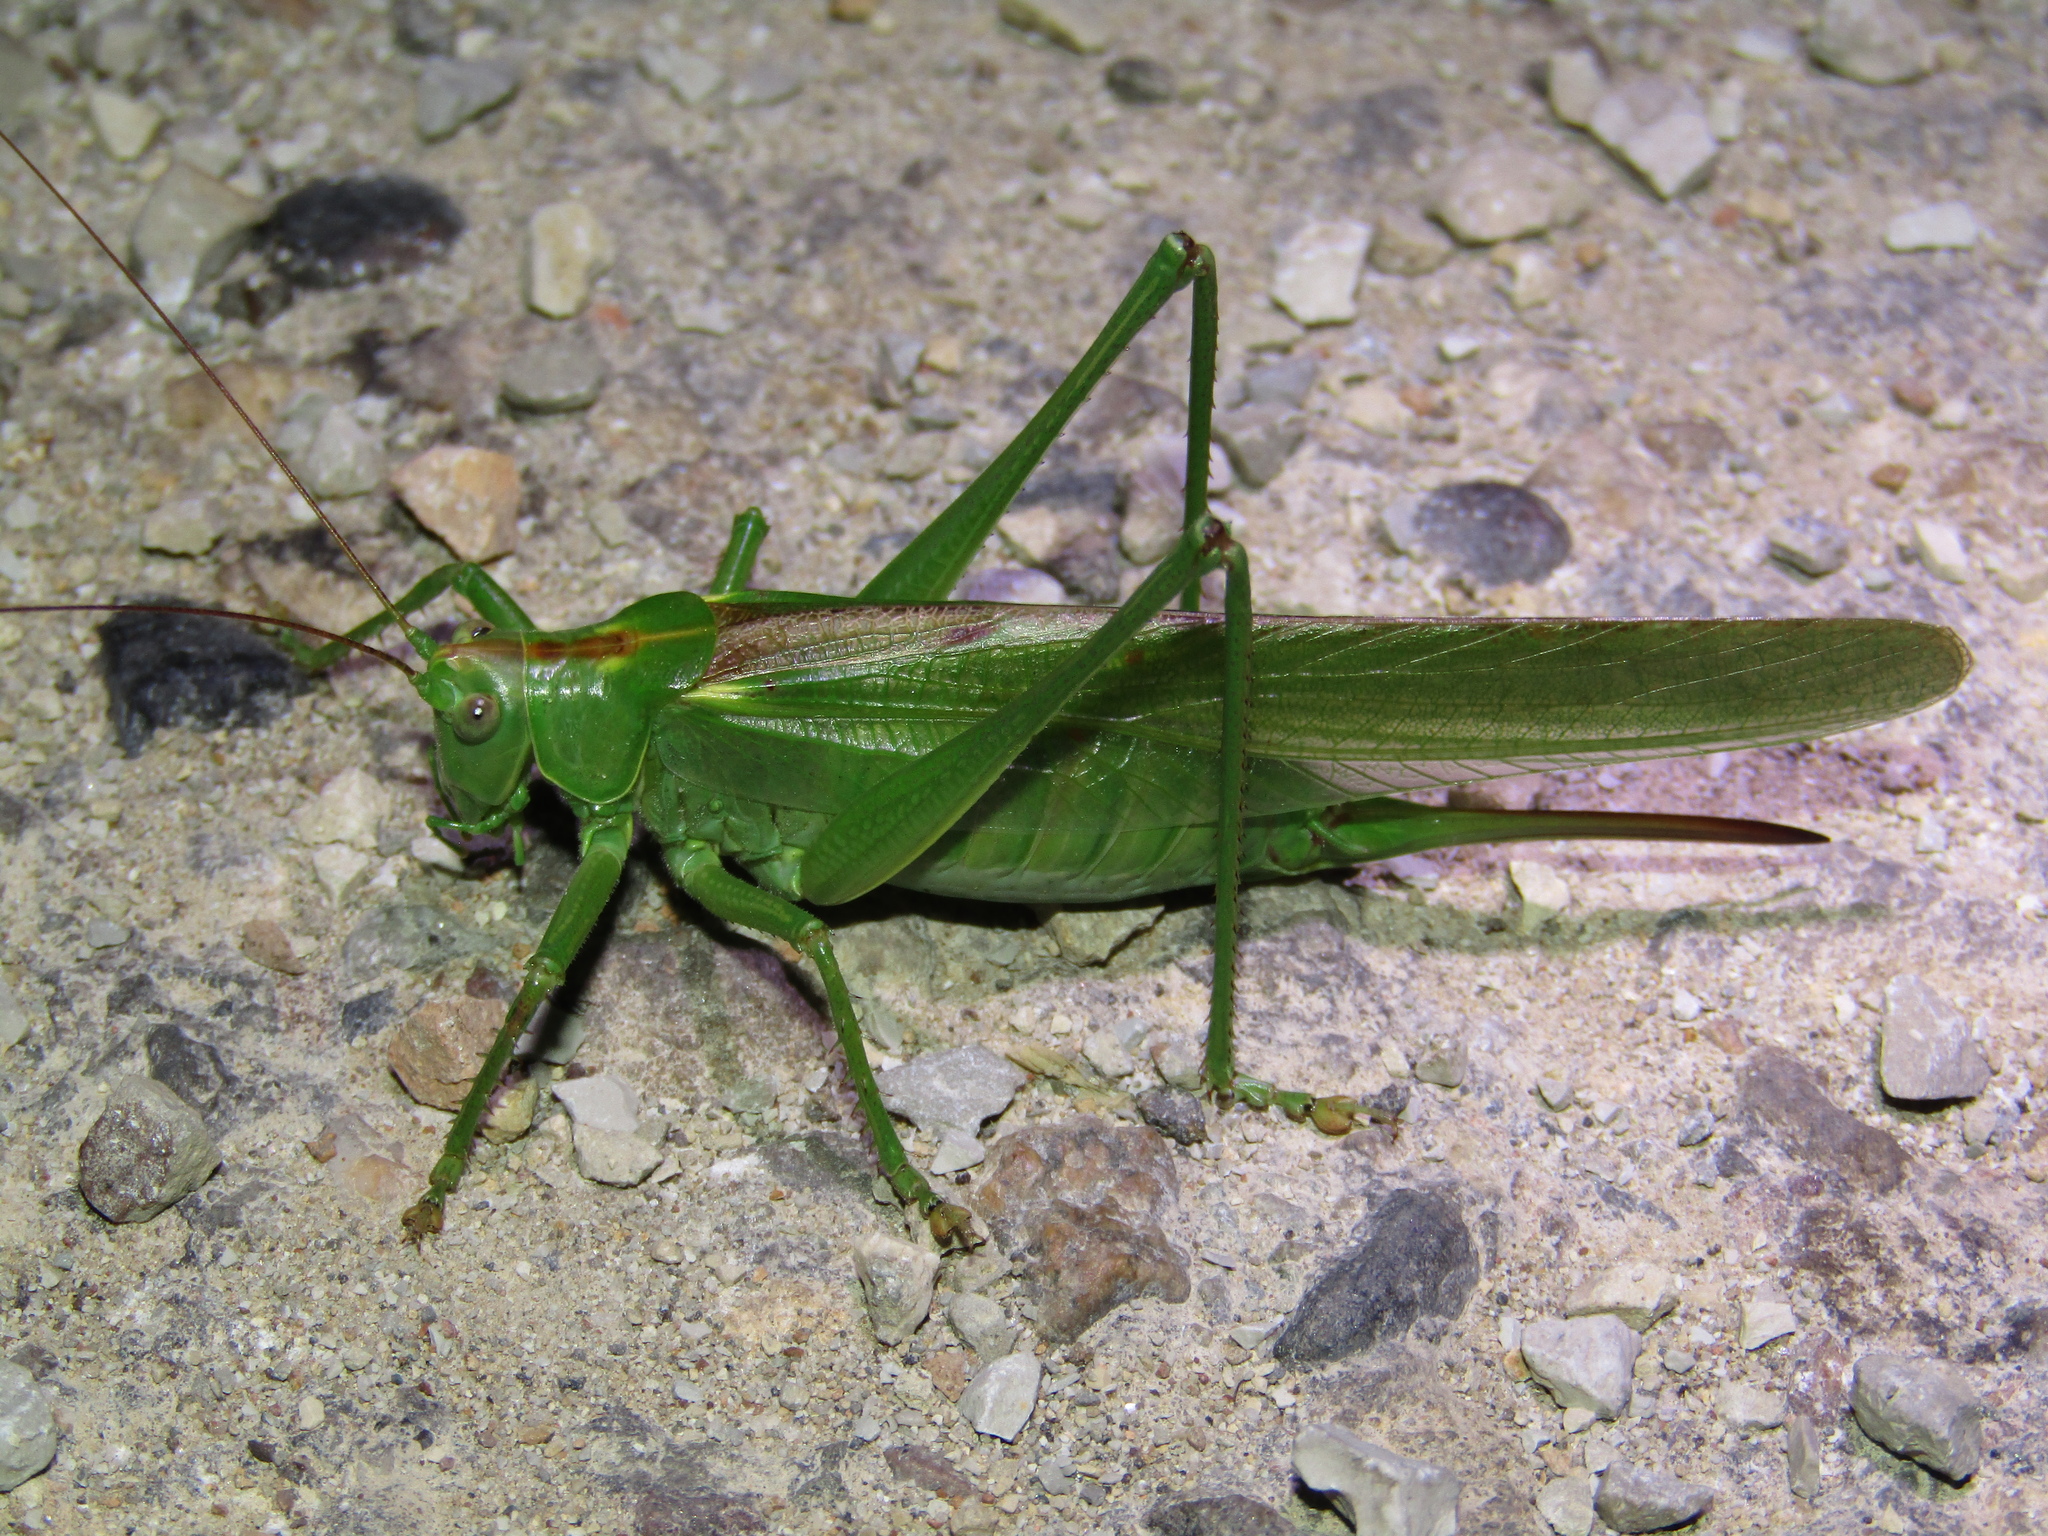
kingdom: Animalia
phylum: Arthropoda
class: Insecta
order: Orthoptera
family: Tettigoniidae
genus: Tettigonia
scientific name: Tettigonia viridissima
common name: Great green bush-cricket
